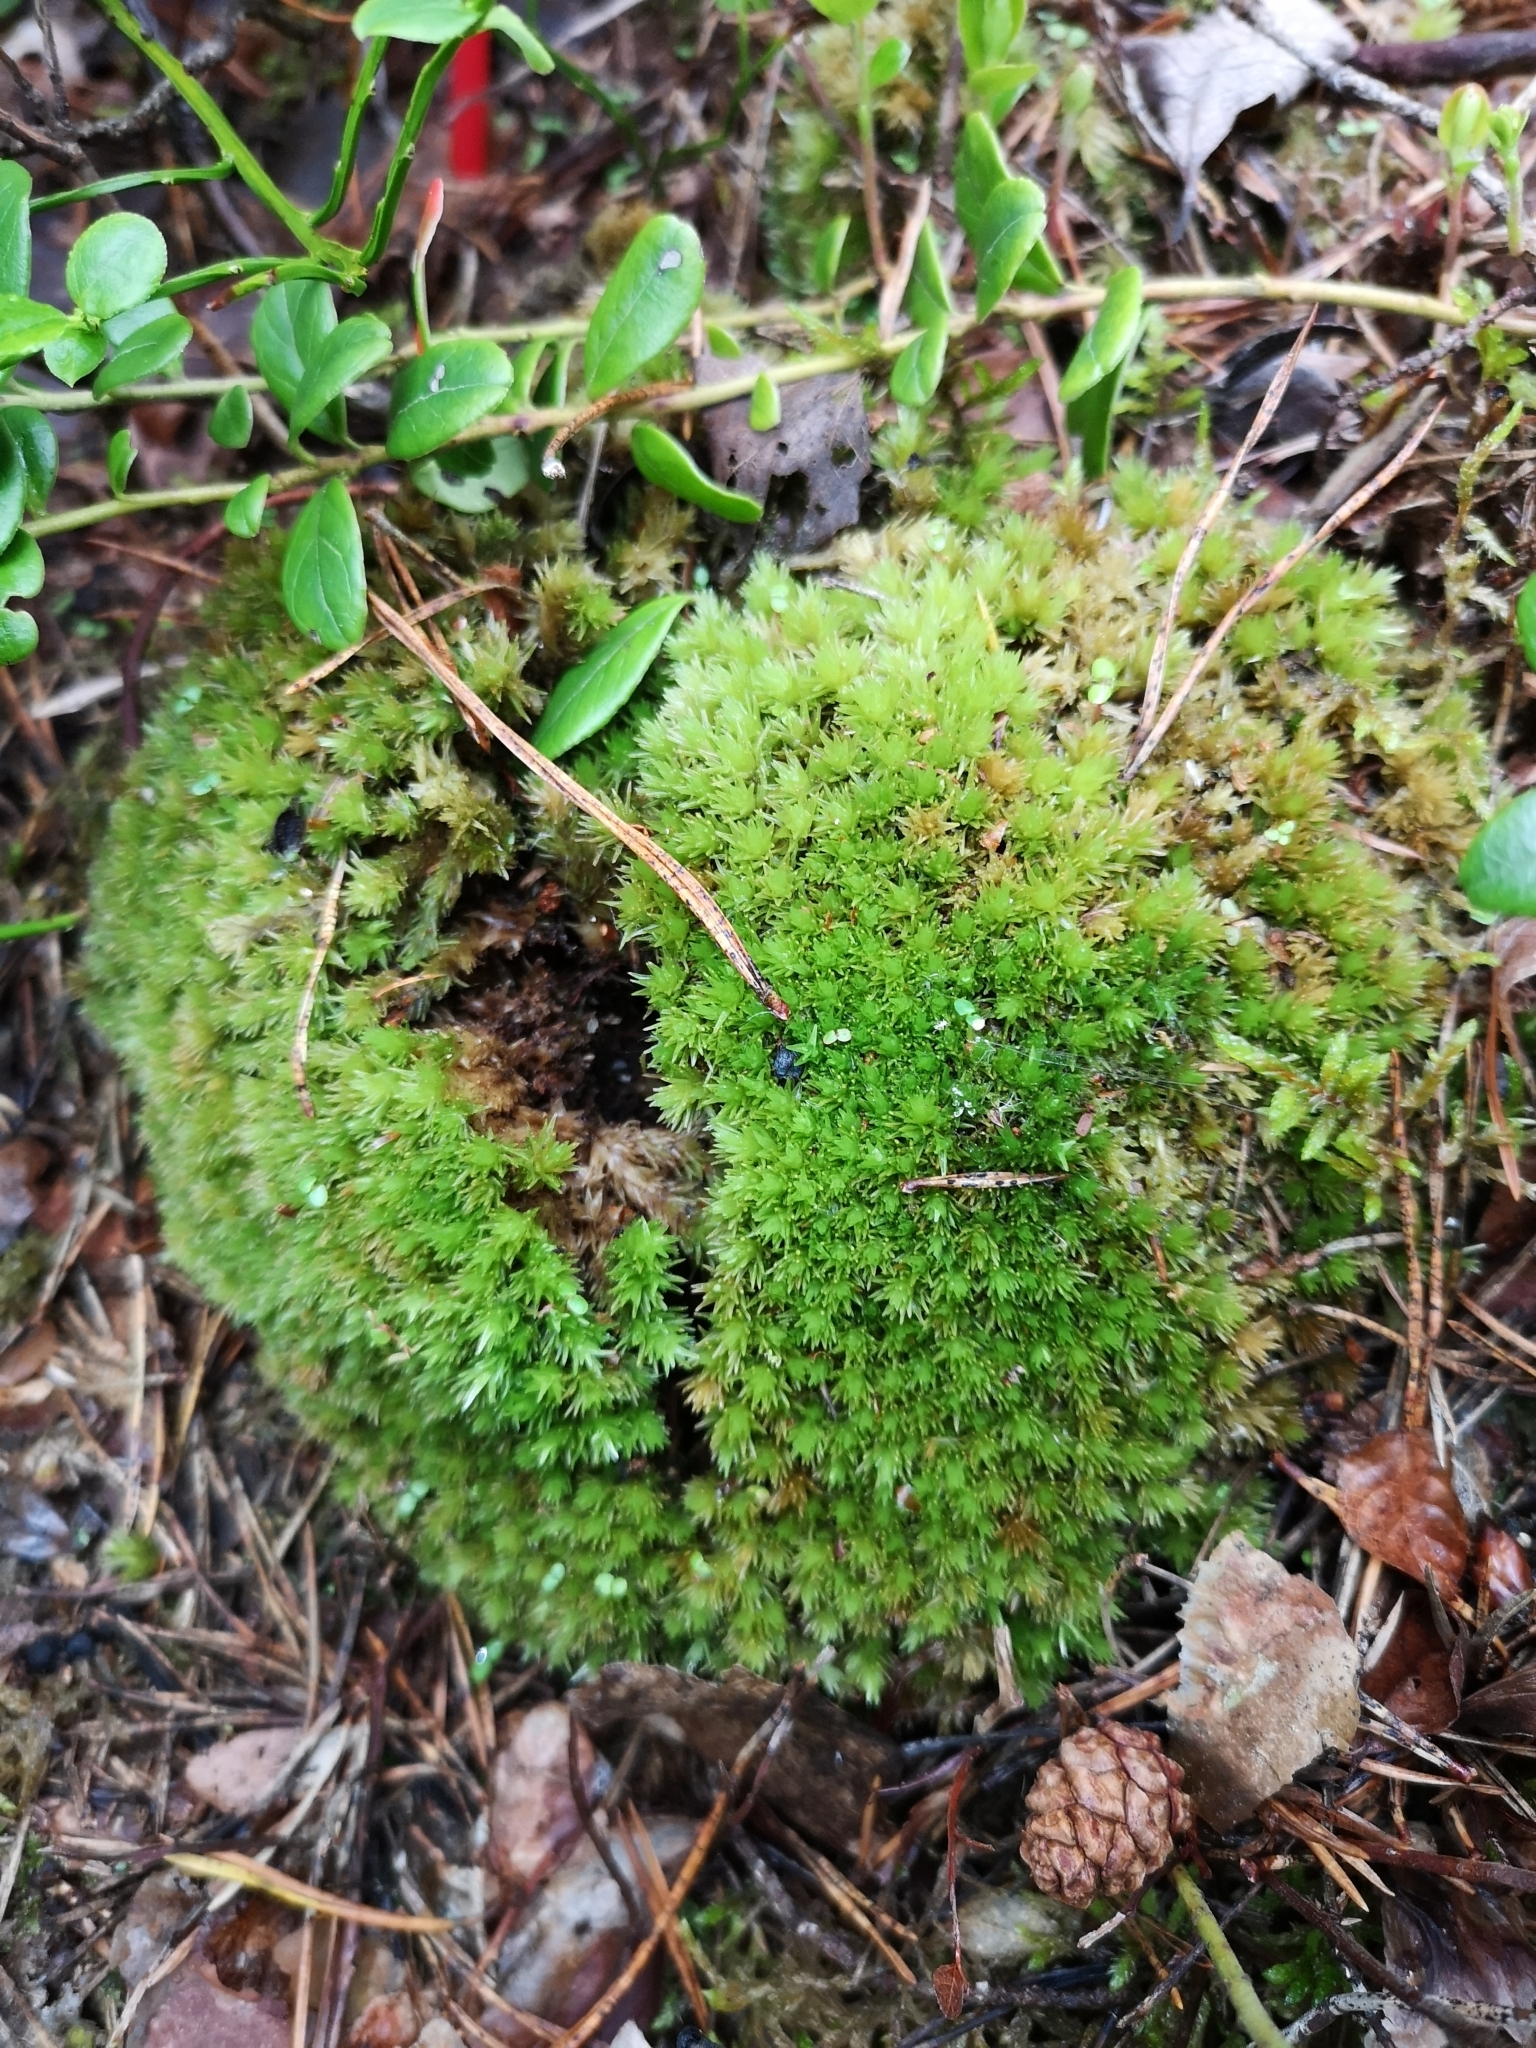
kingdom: Plantae
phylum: Bryophyta
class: Bryopsida
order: Dicranales
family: Leucobryaceae
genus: Leucobryum
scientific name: Leucobryum glaucum
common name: Large white-moss
